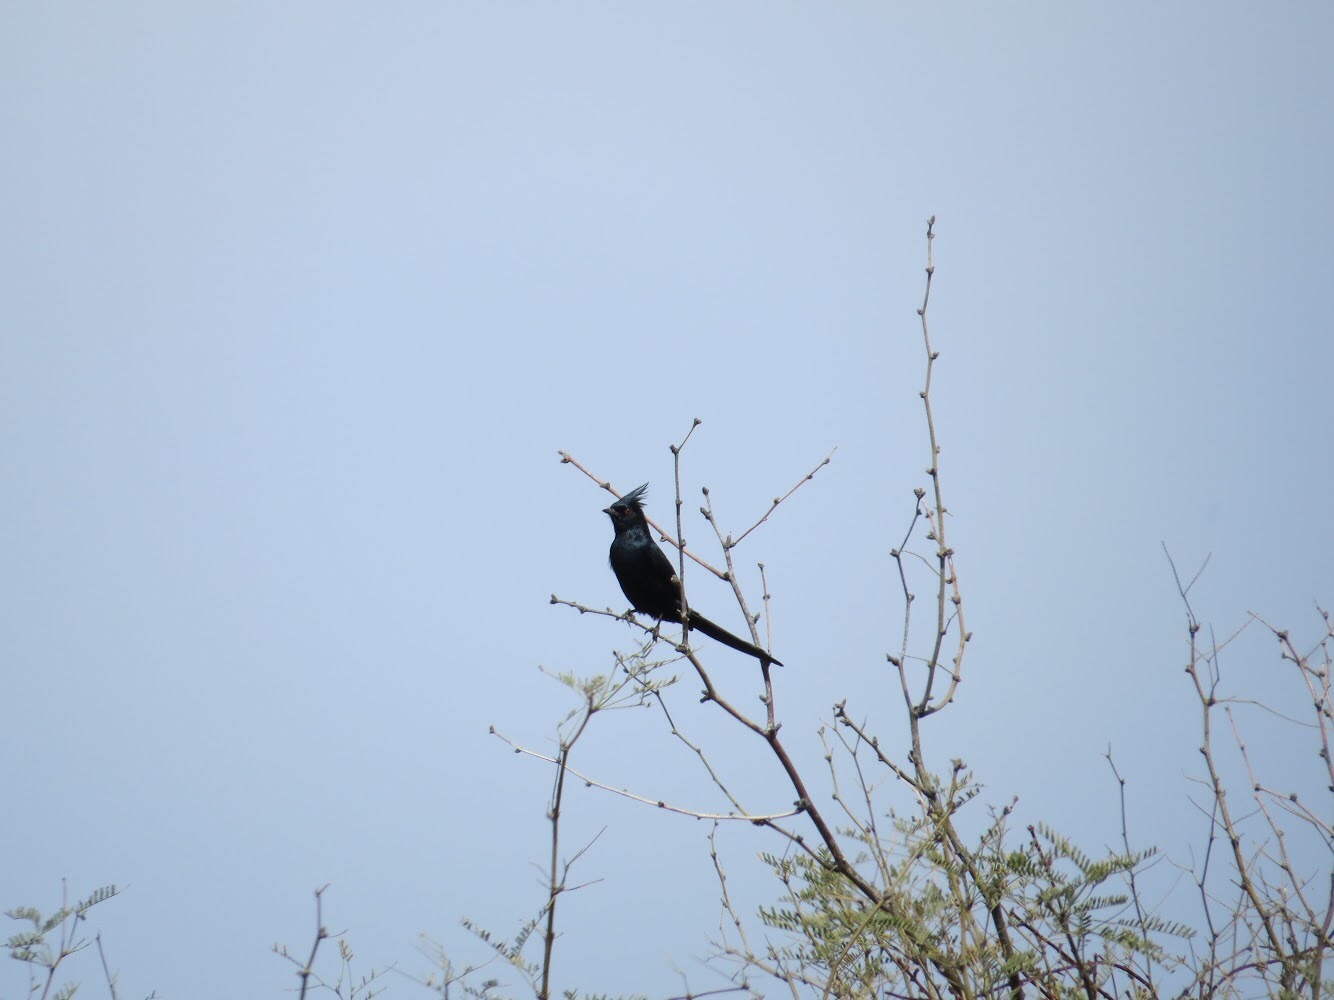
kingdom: Animalia
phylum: Chordata
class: Aves
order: Passeriformes
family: Ptilogonatidae
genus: Phainopepla
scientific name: Phainopepla nitens
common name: Phainopepla
